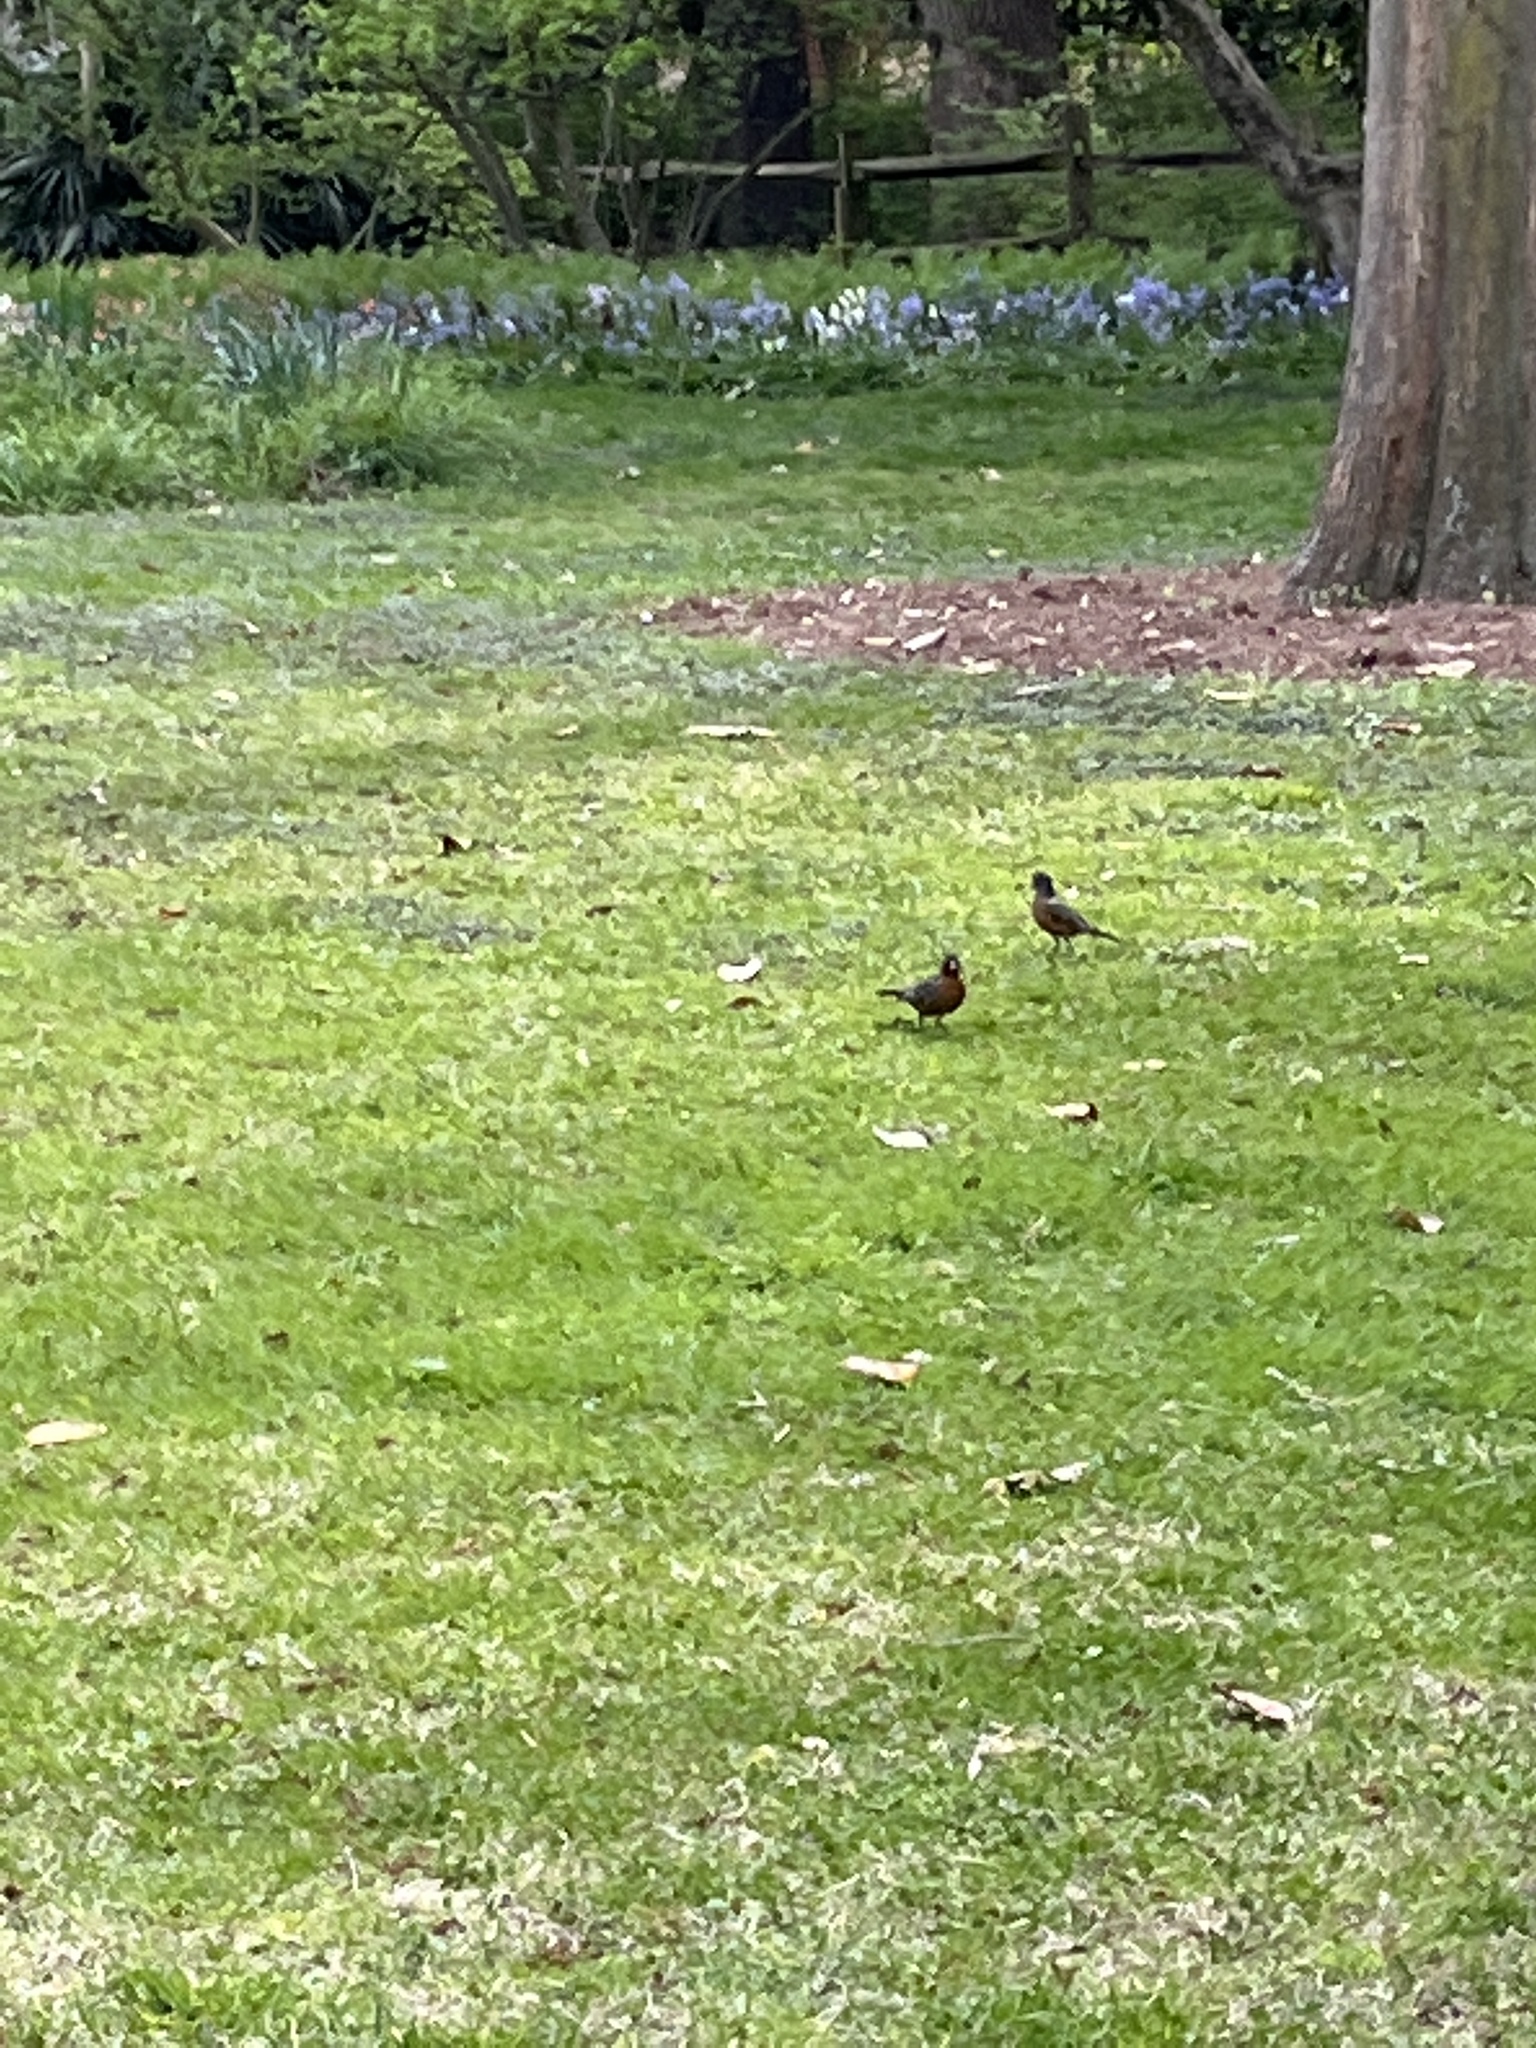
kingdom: Animalia
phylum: Chordata
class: Aves
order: Passeriformes
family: Turdidae
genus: Turdus
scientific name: Turdus migratorius
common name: American robin
